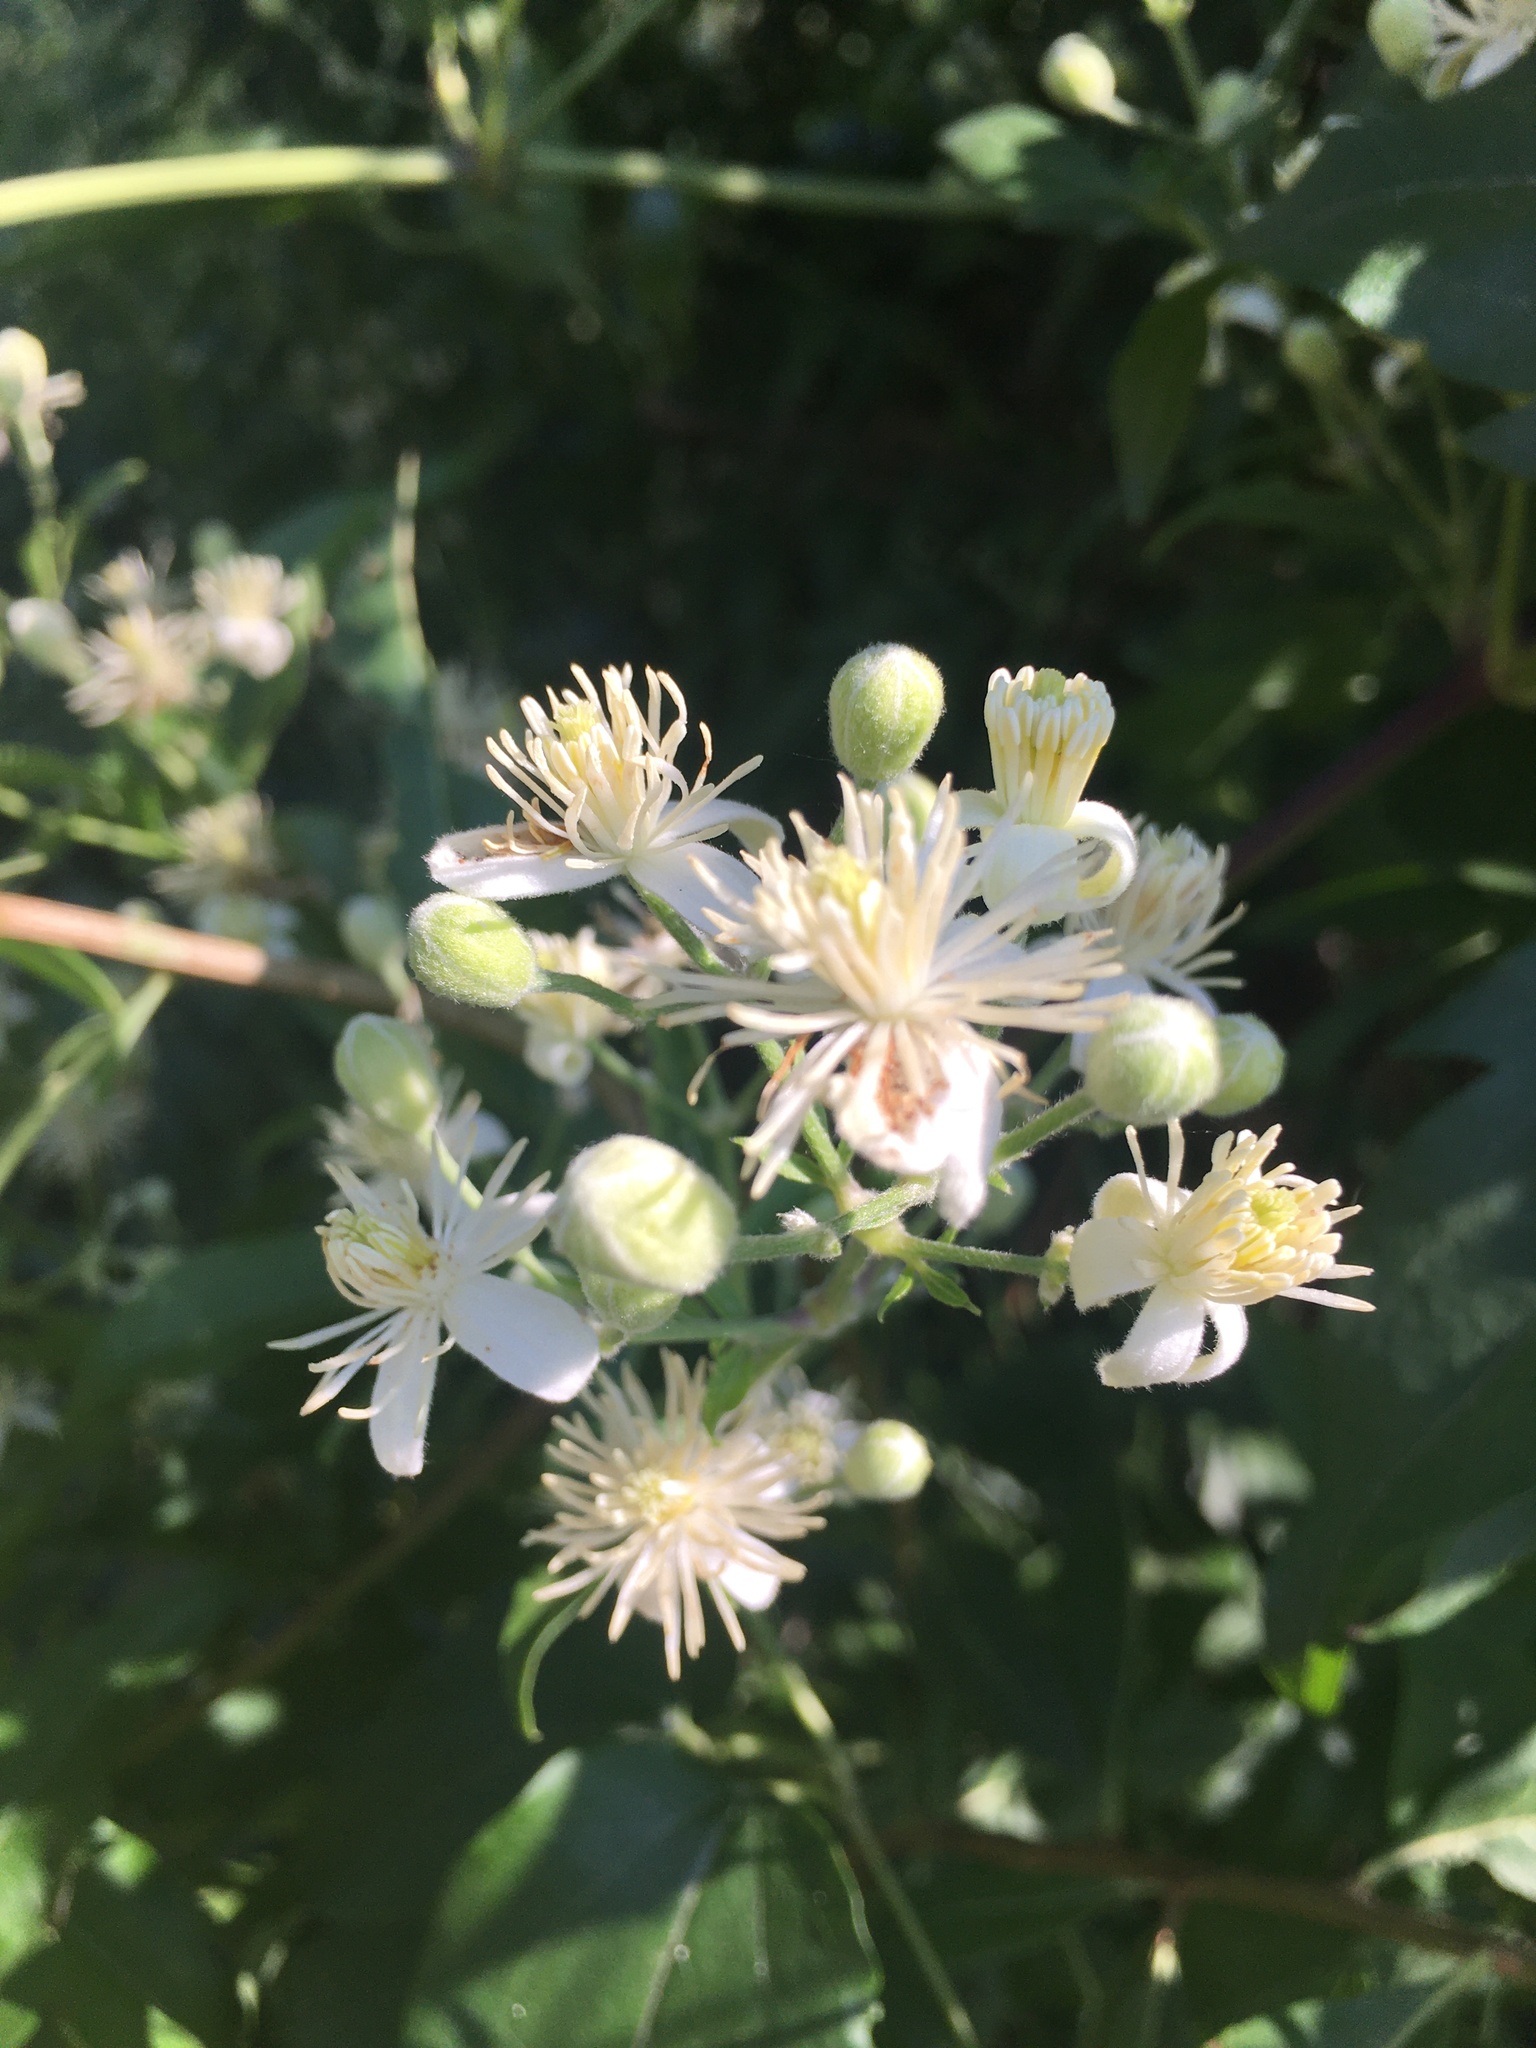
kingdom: Plantae
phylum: Tracheophyta
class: Magnoliopsida
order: Ranunculales
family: Ranunculaceae
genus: Clematis
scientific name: Clematis vitalba
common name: Evergreen clematis
